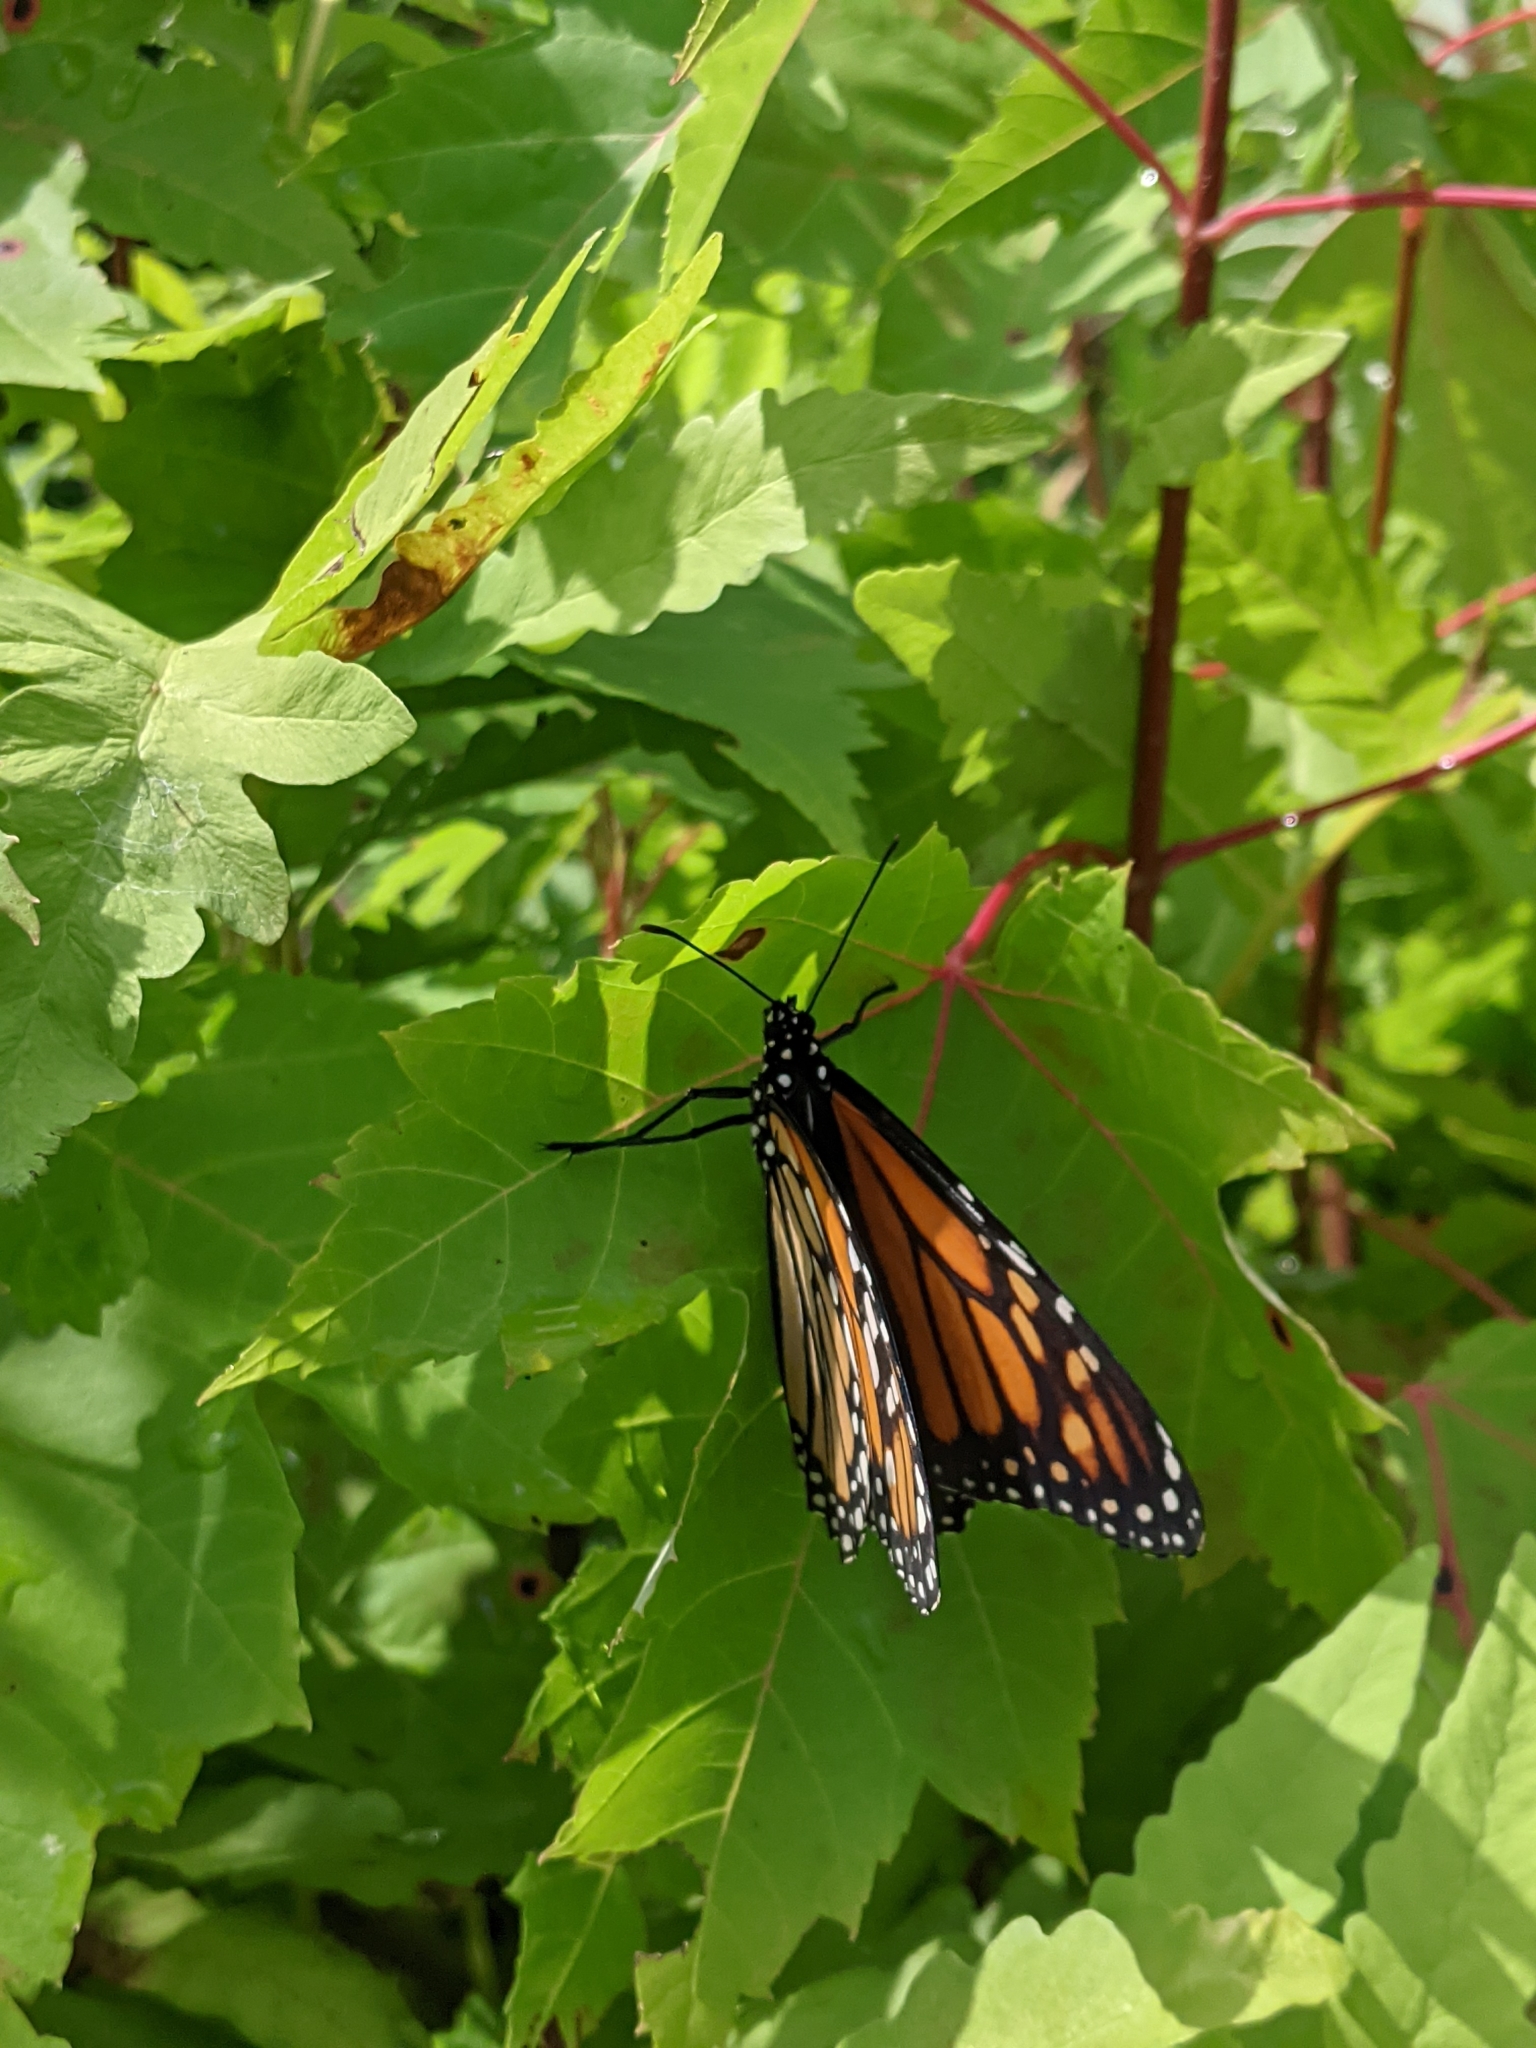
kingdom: Animalia
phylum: Arthropoda
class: Insecta
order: Lepidoptera
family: Nymphalidae
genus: Danaus
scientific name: Danaus plexippus
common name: Monarch
